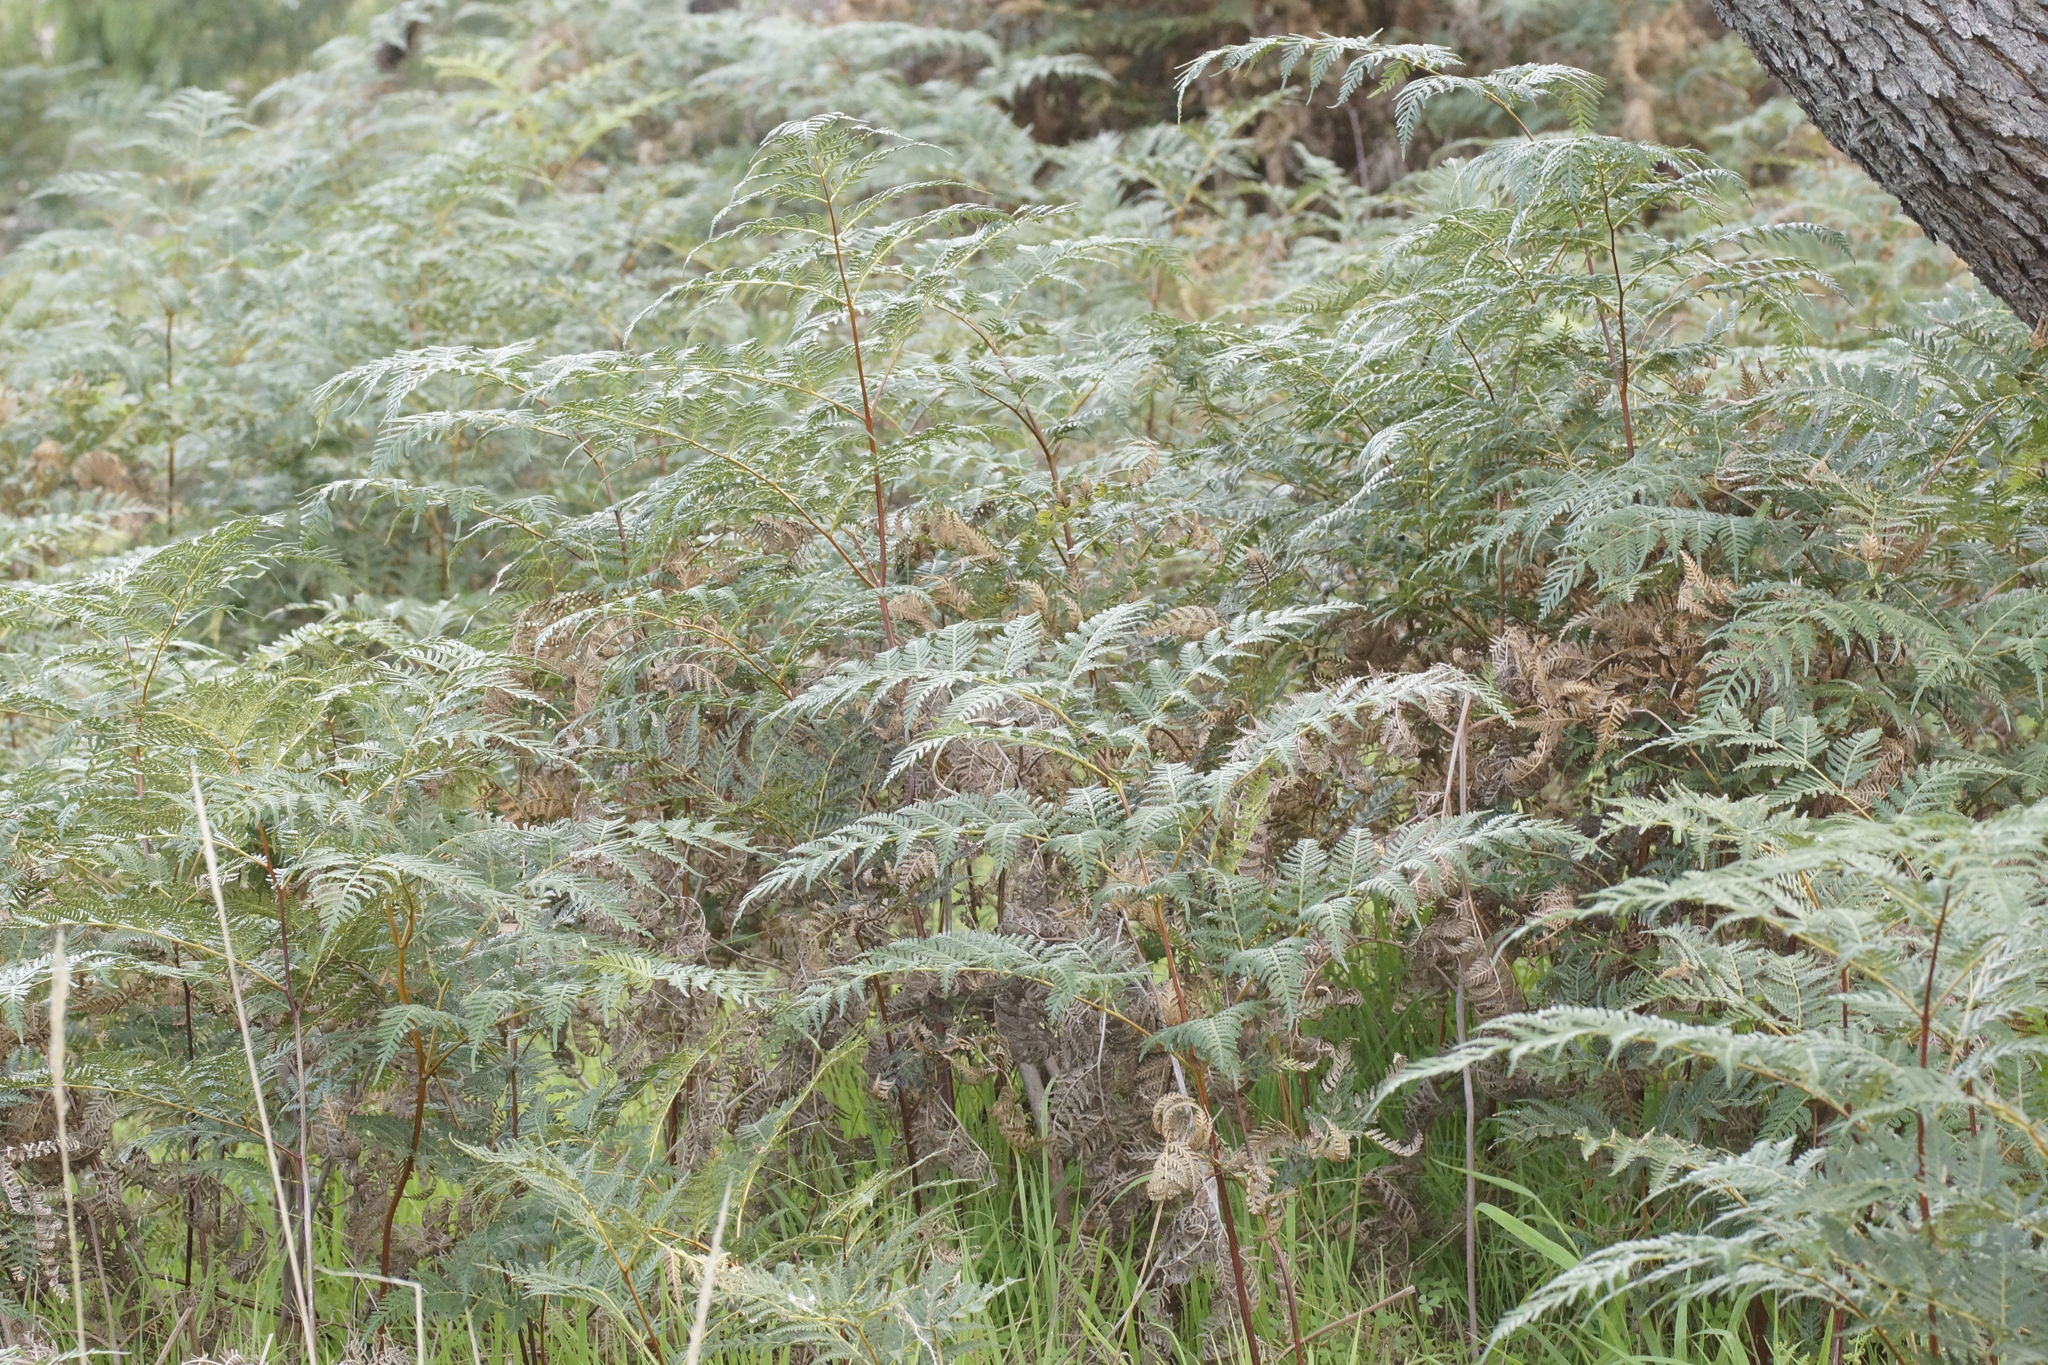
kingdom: Plantae
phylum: Tracheophyta
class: Polypodiopsida
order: Polypodiales
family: Dennstaedtiaceae
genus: Pteridium
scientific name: Pteridium esculentum
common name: Bracken fern
